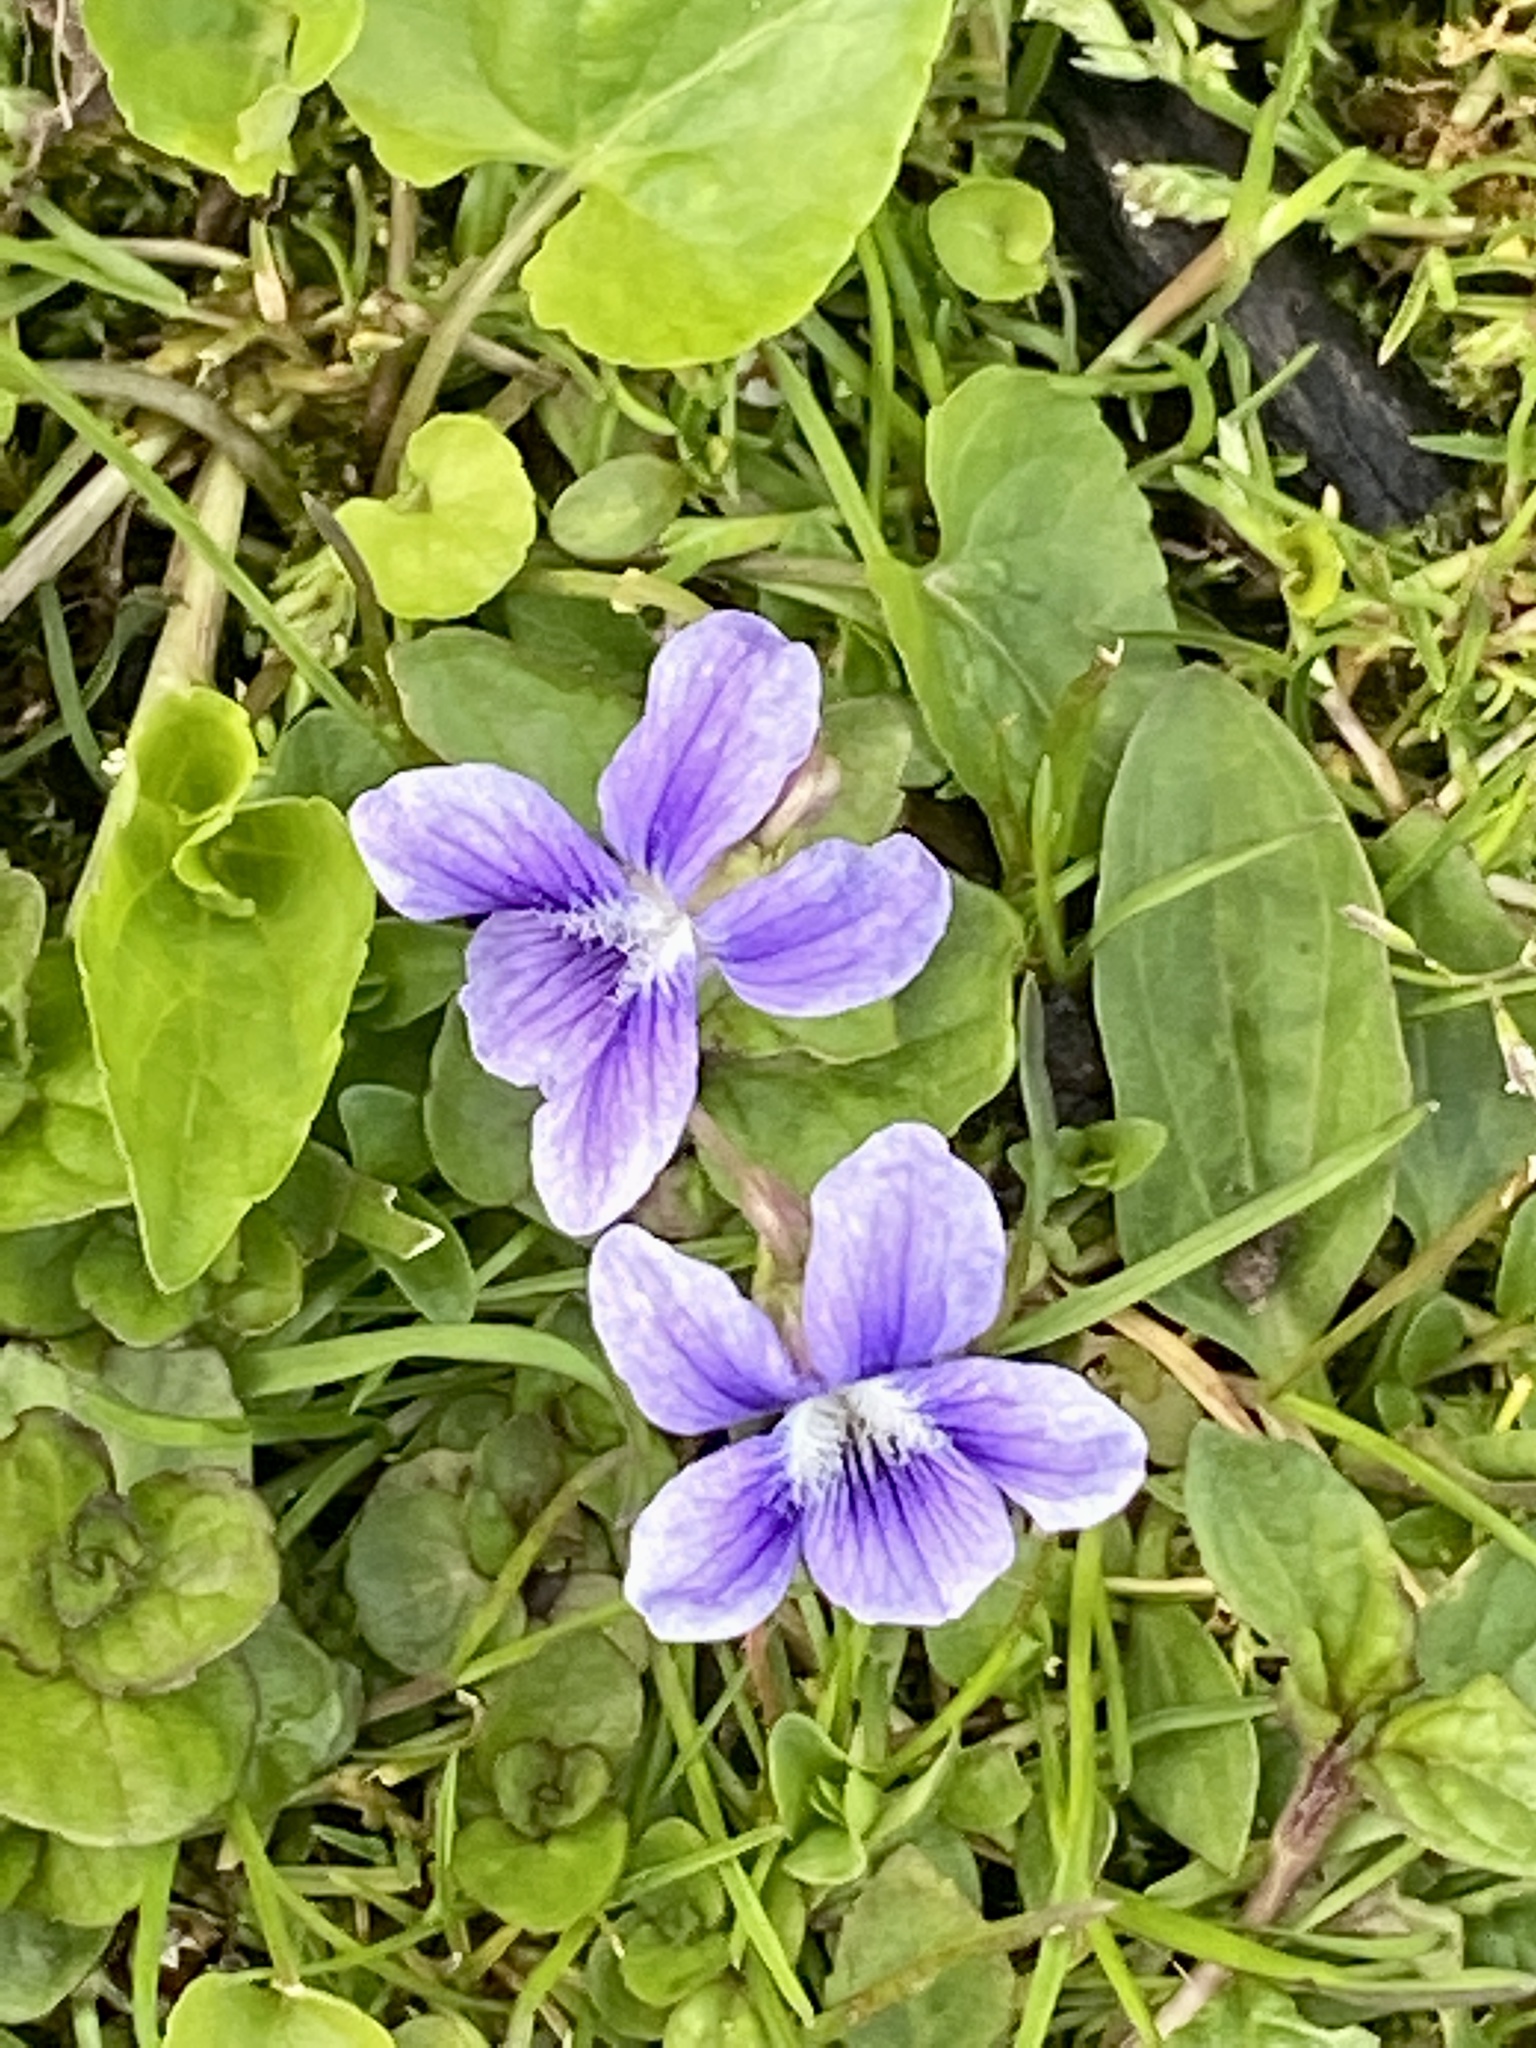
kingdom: Plantae
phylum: Tracheophyta
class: Magnoliopsida
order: Malpighiales
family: Violaceae
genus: Viola
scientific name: Viola sororia
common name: Dooryard violet
